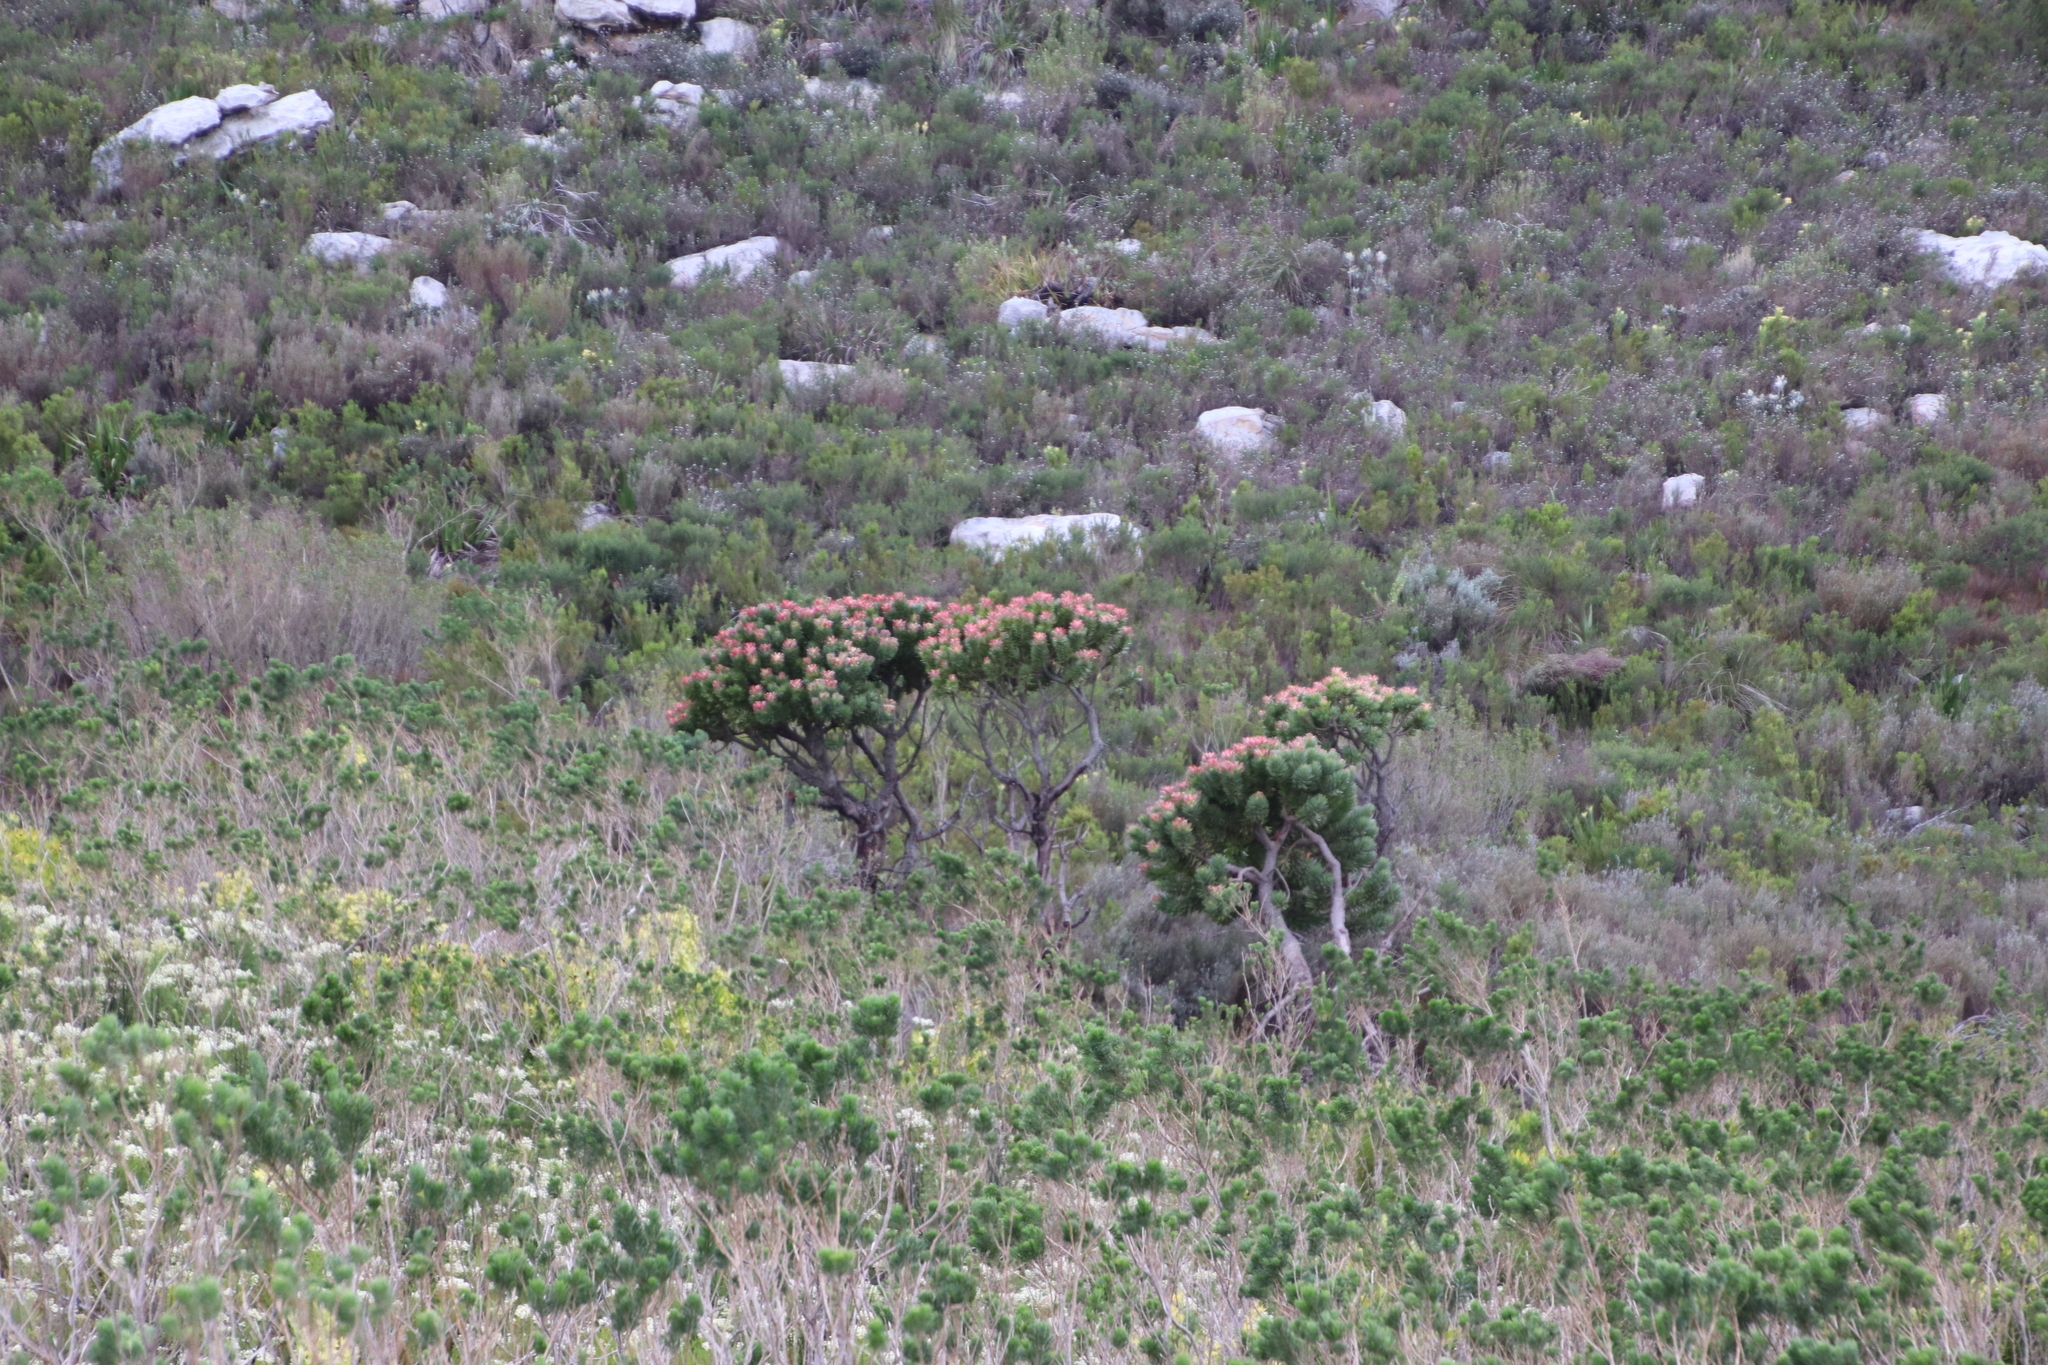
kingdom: Plantae
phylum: Tracheophyta
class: Magnoliopsida
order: Proteales
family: Proteaceae
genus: Mimetes
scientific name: Mimetes fimbriifolius
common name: Fringed bottlebrush
